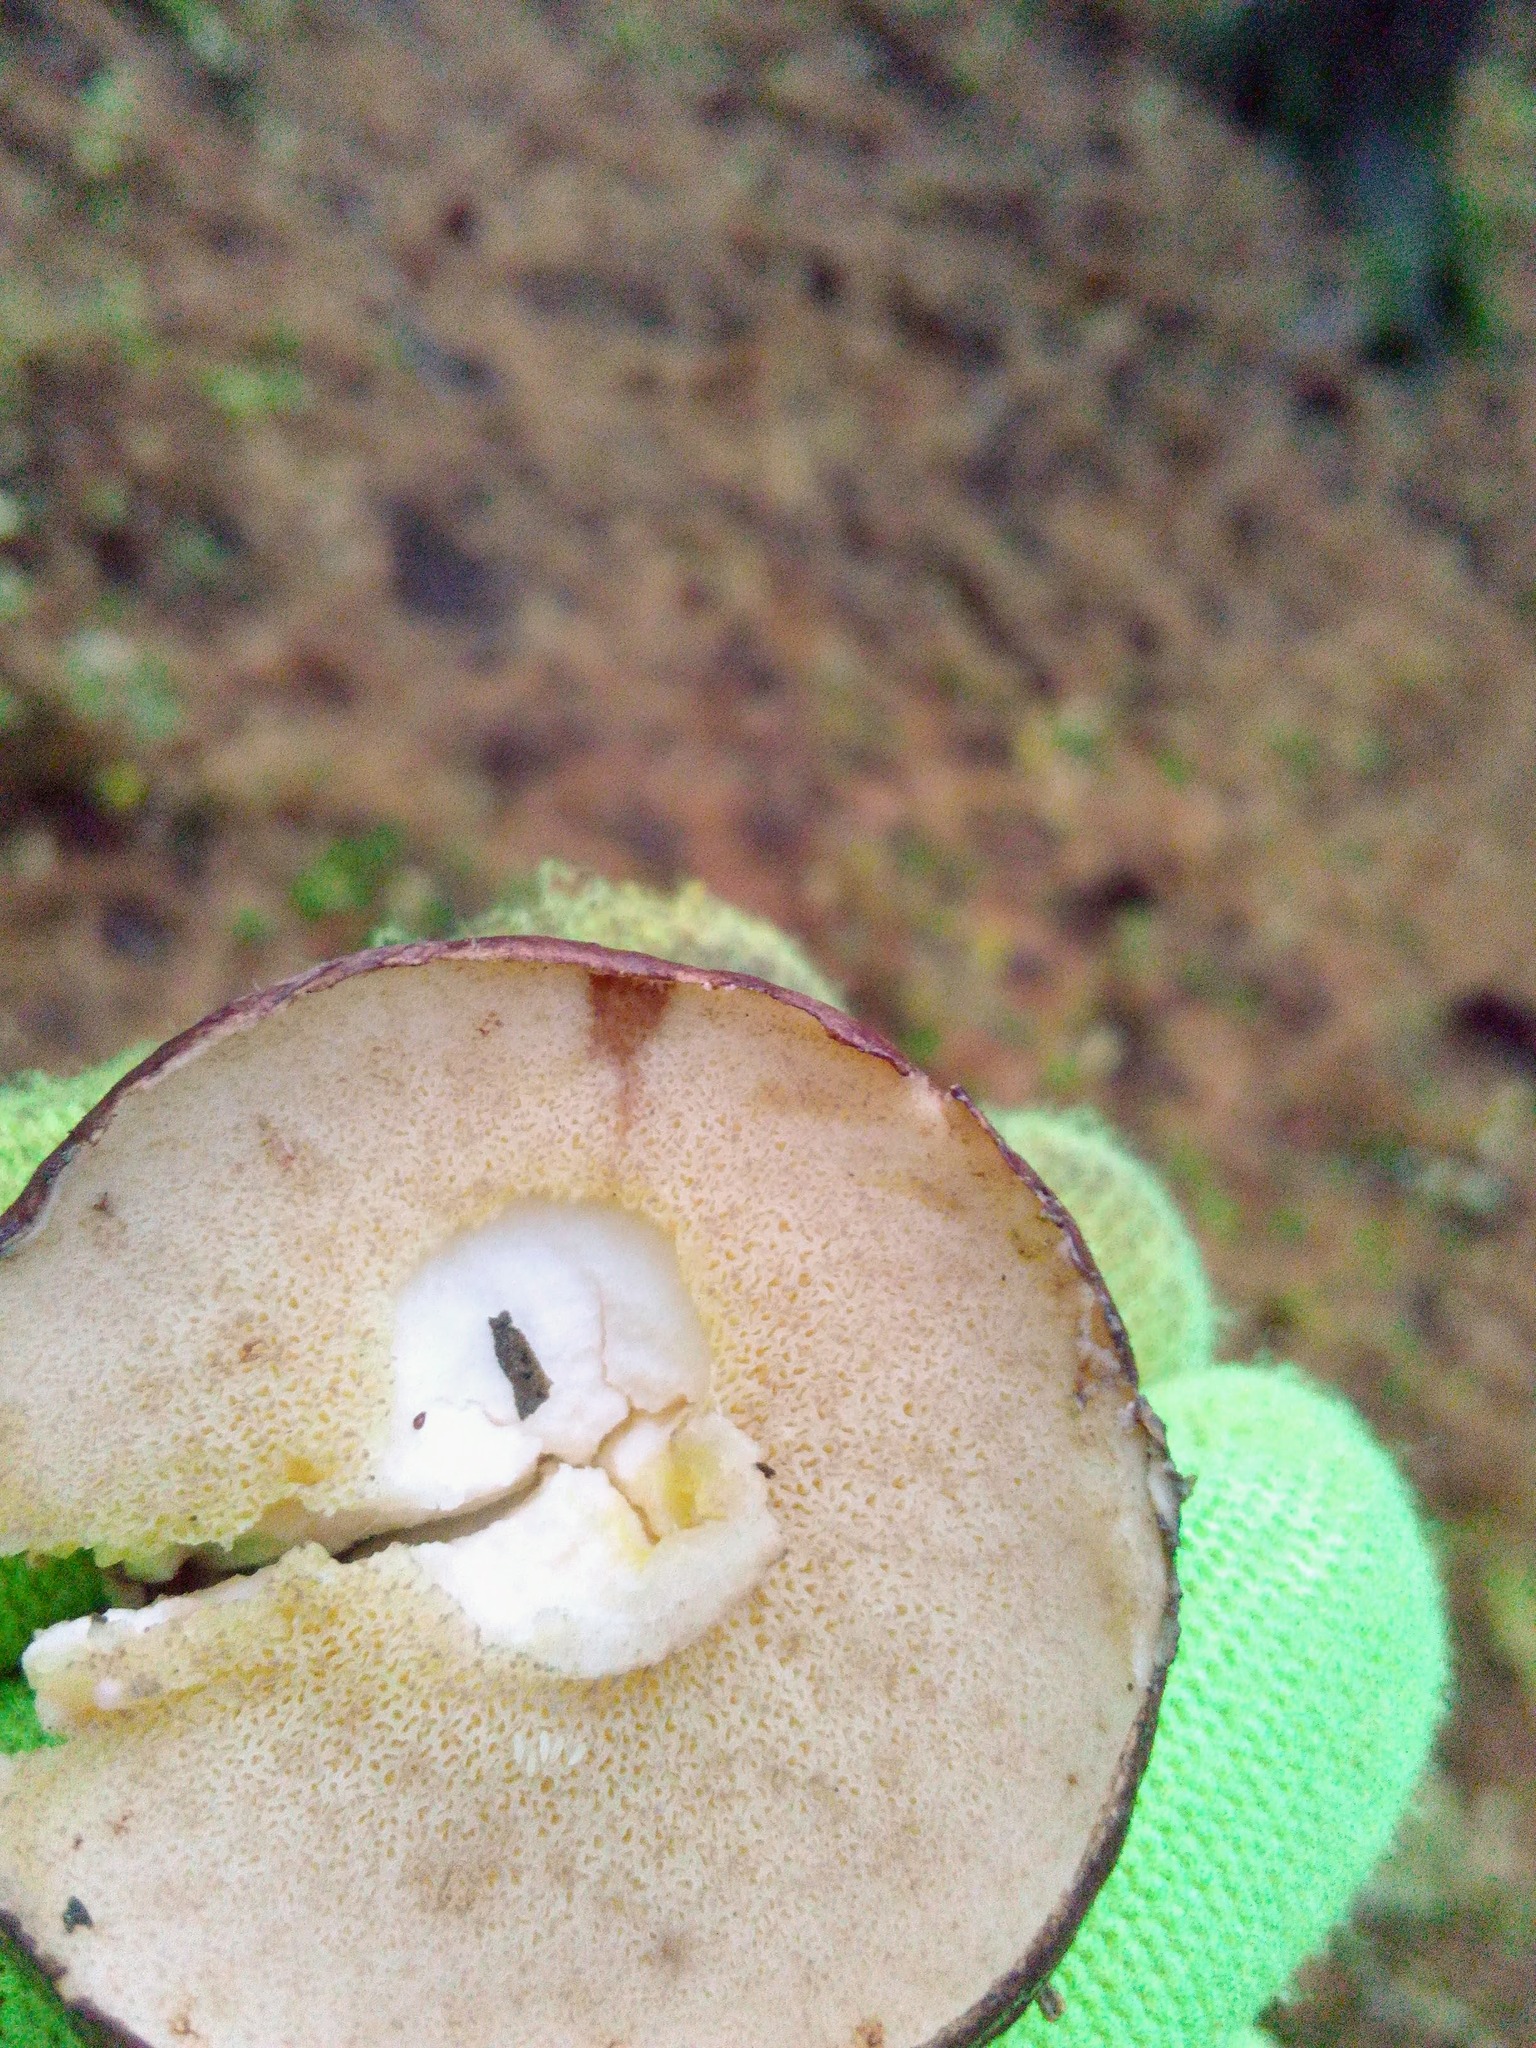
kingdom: Fungi
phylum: Basidiomycota
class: Agaricomycetes
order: Boletales
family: Suillaceae
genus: Suillus
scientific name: Suillus placidus
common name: Slippery white bolete
